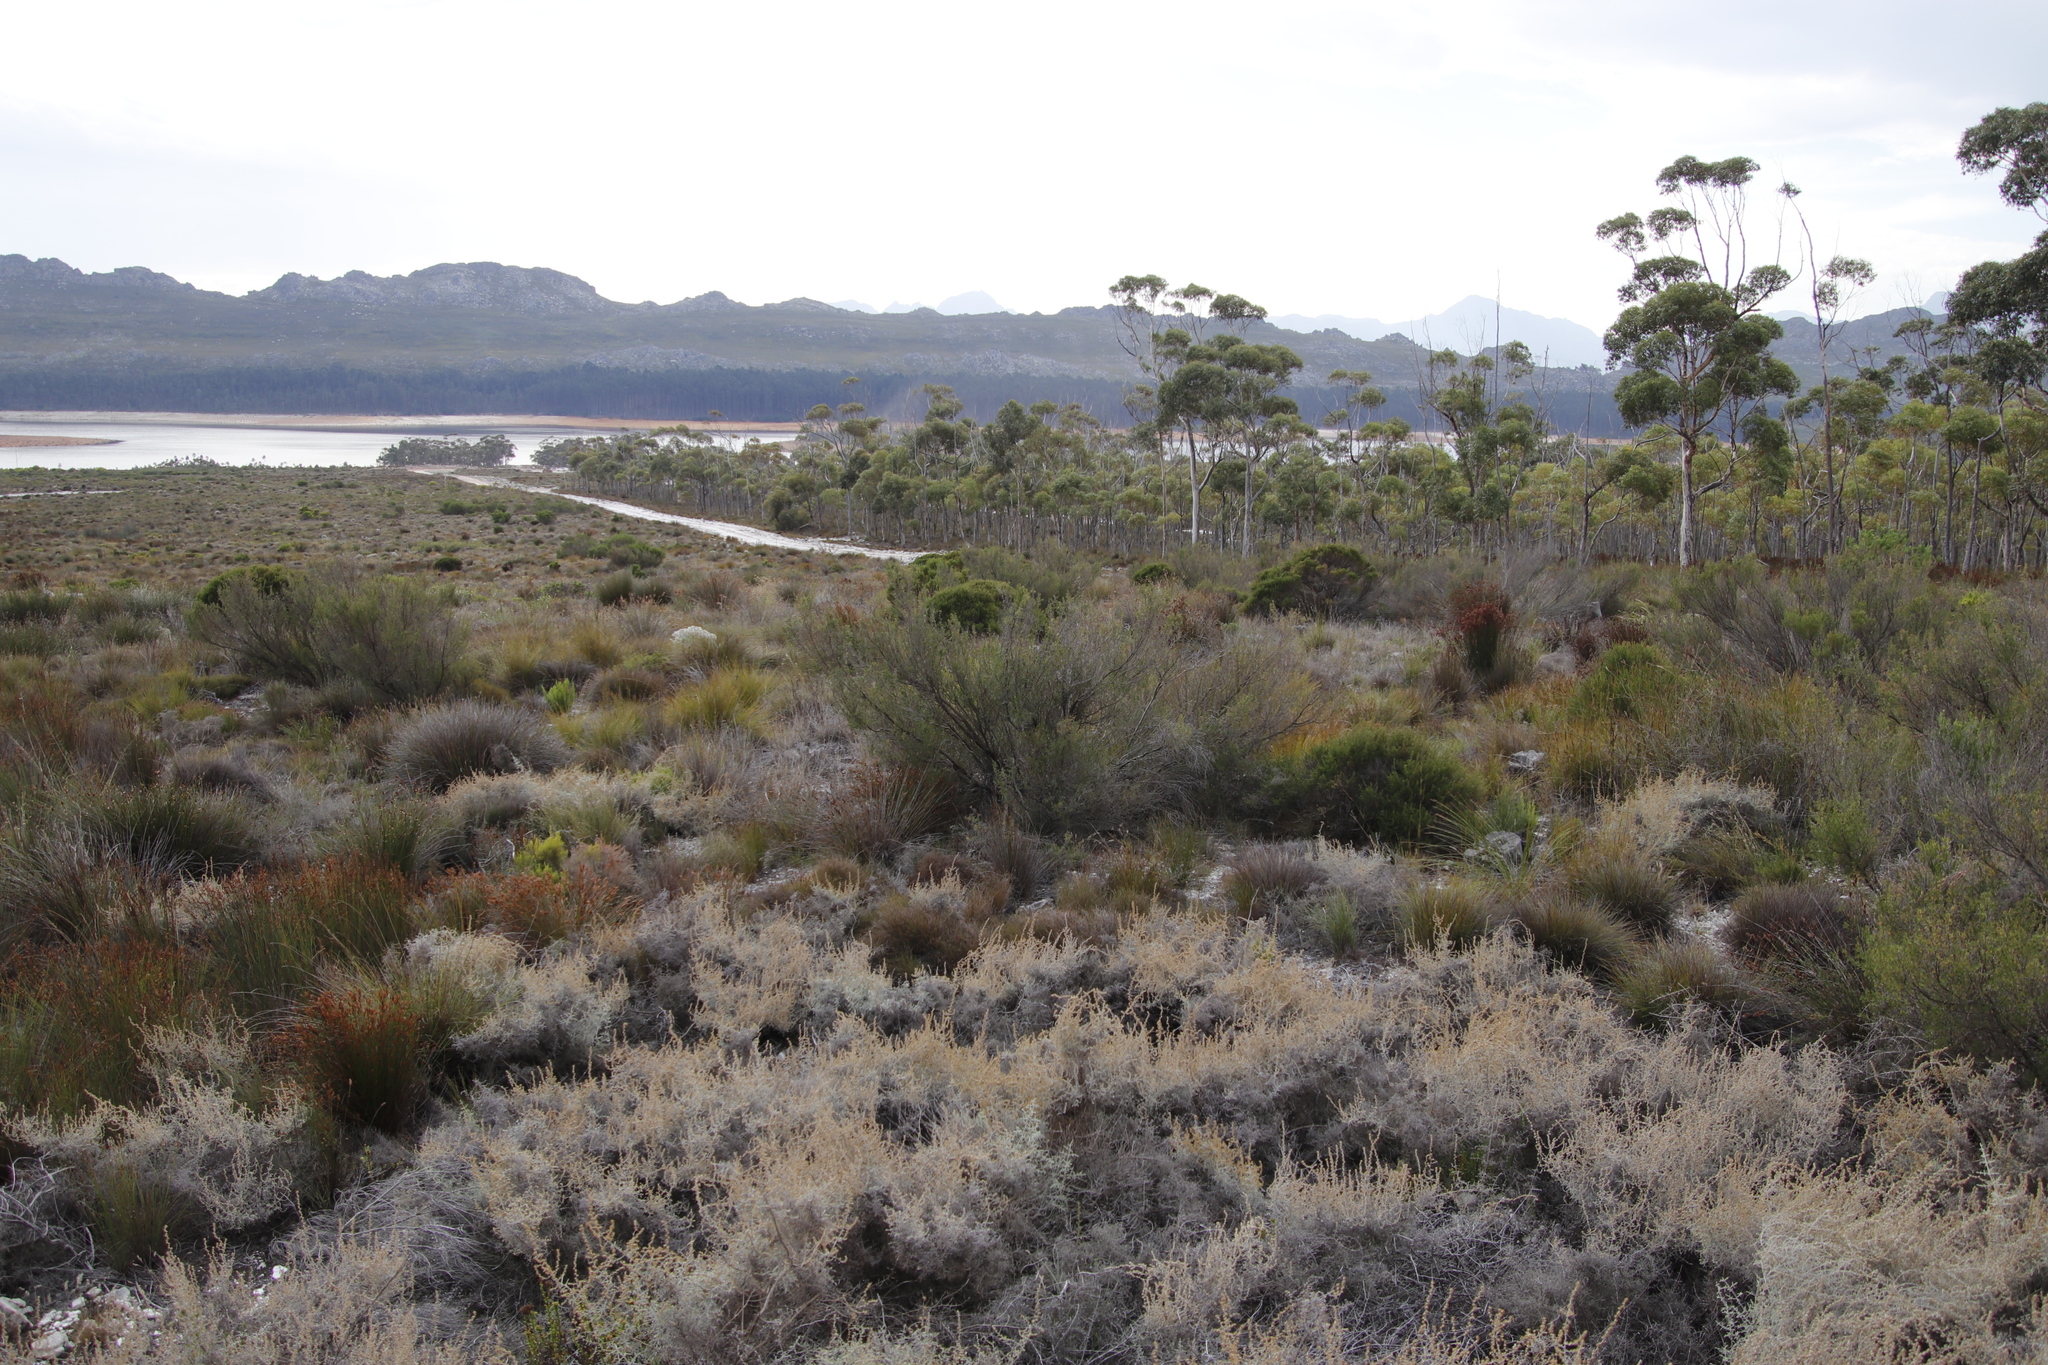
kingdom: Plantae
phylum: Tracheophyta
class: Magnoliopsida
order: Asterales
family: Asteraceae
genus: Seriphium
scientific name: Seriphium plumosum
